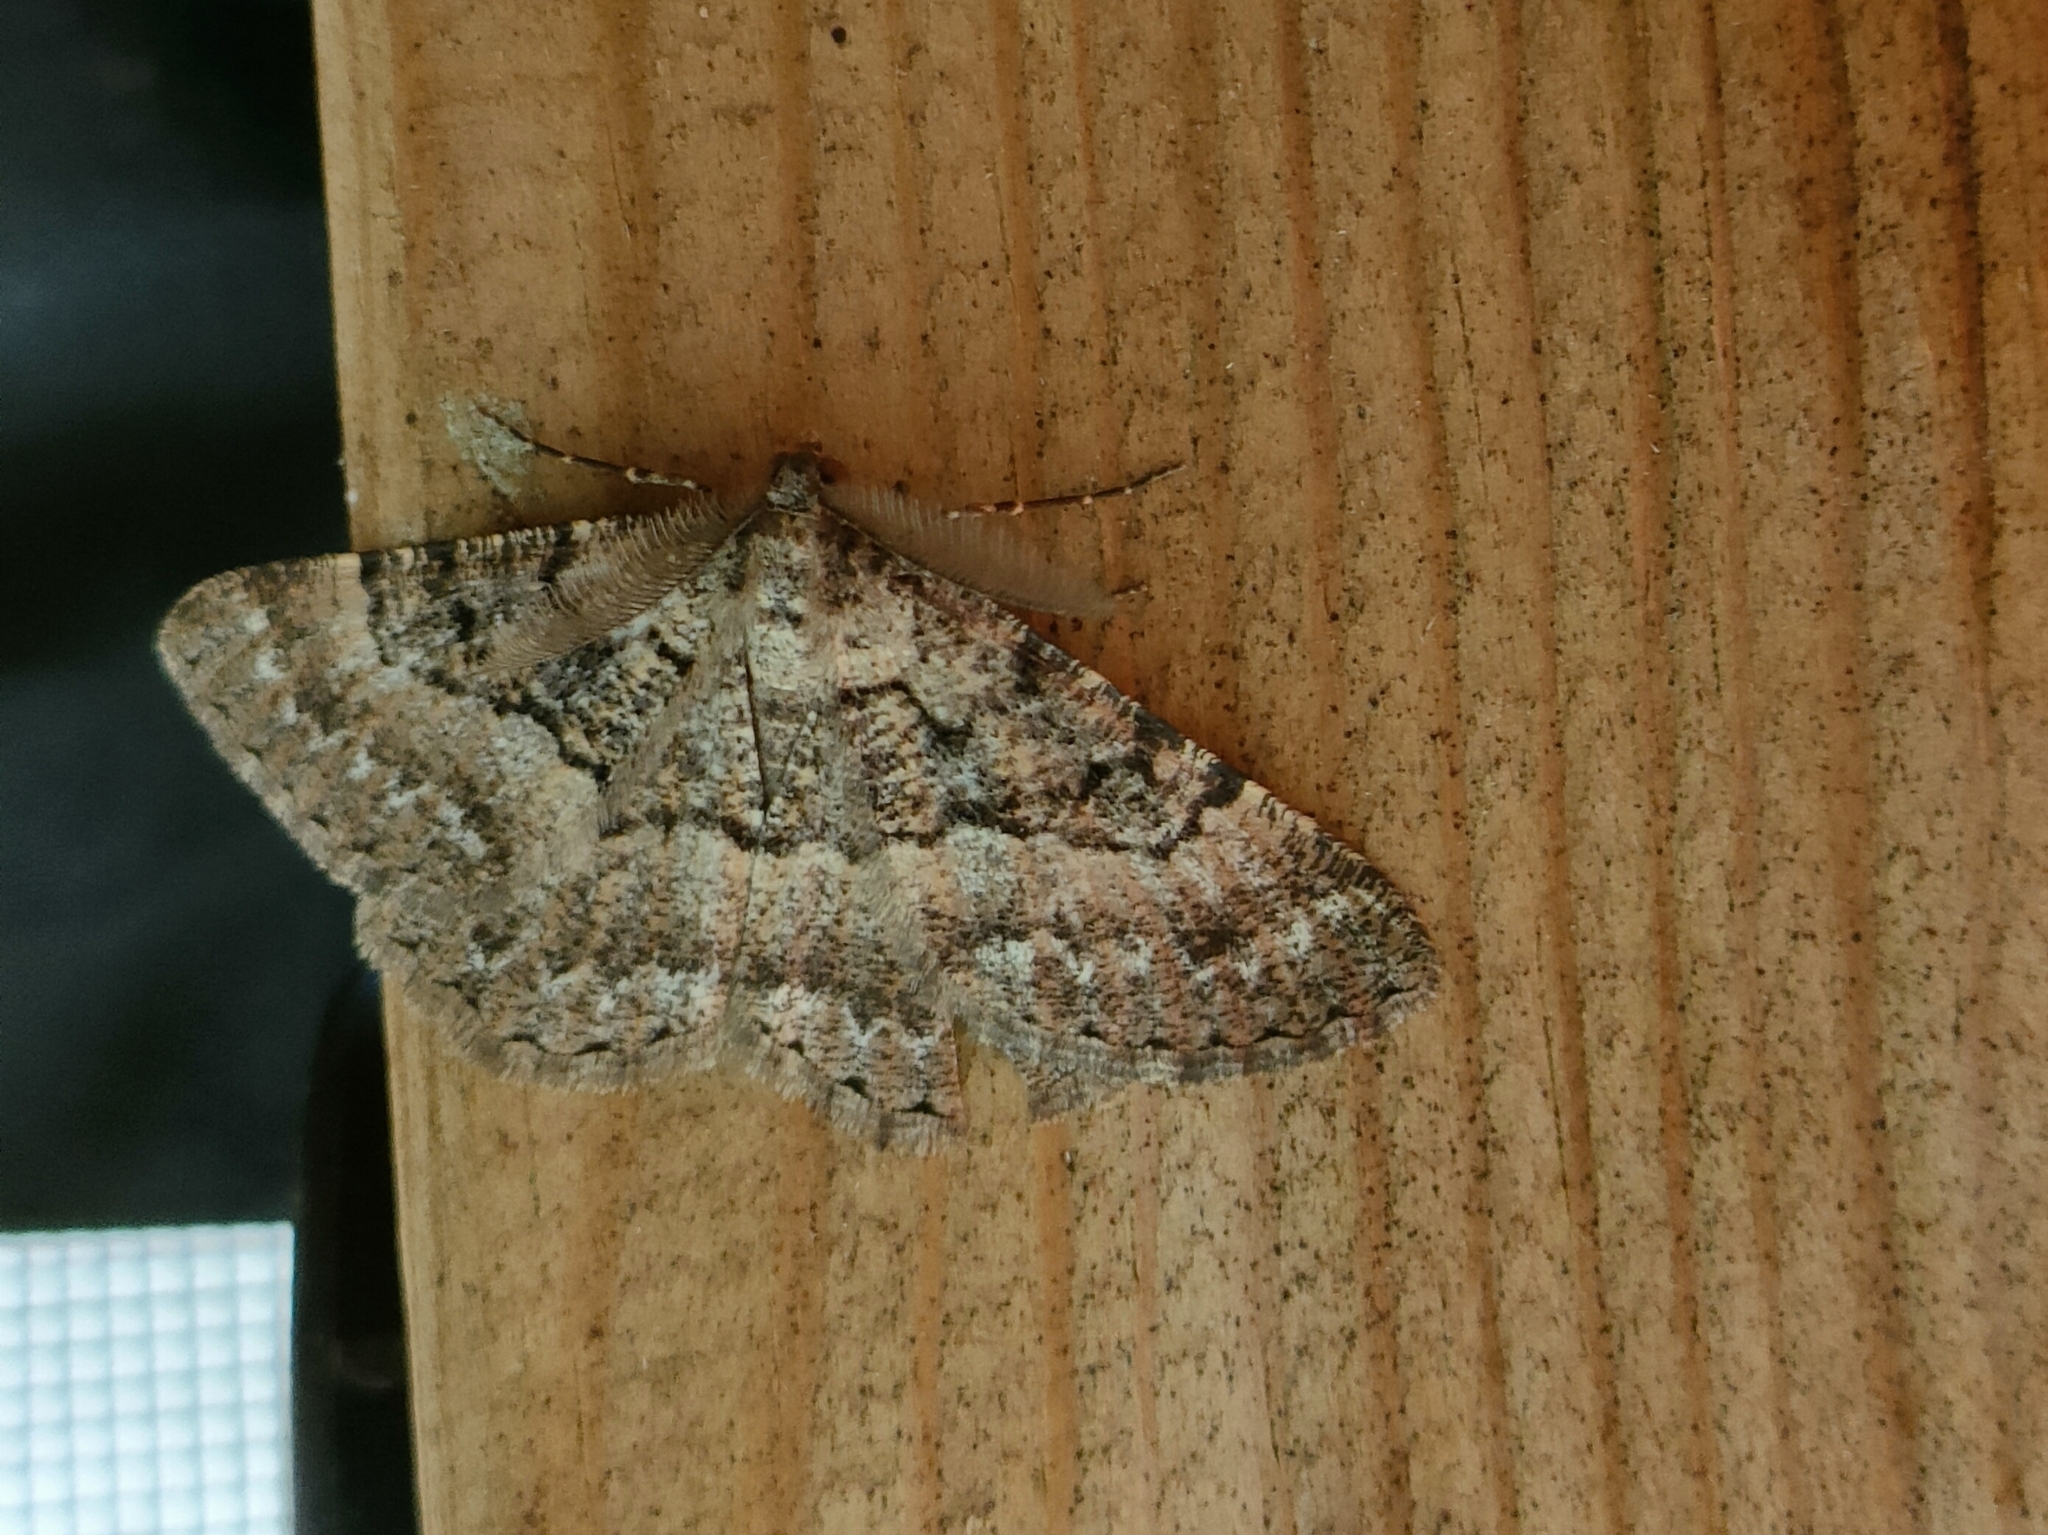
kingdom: Animalia
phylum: Arthropoda
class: Insecta
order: Lepidoptera
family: Geometridae
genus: Selidosema
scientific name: Selidosema taeniolaria
